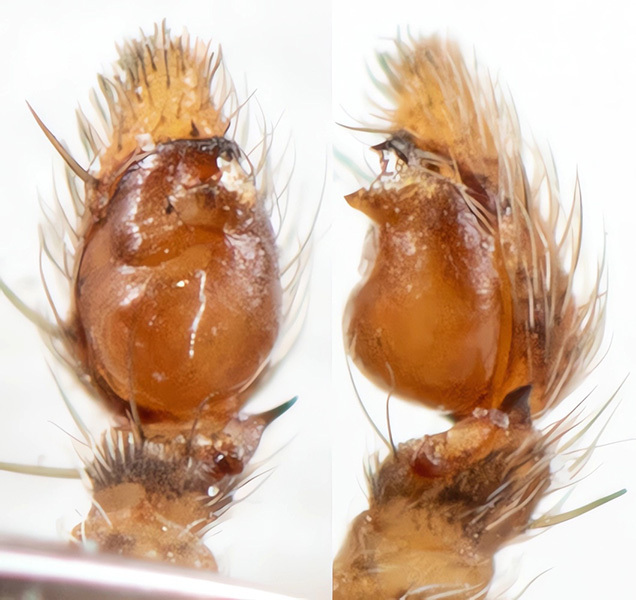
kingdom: Animalia
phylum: Arthropoda
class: Arachnida
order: Araneae
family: Philodromidae
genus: Thanatus
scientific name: Thanatus mikhailovi
